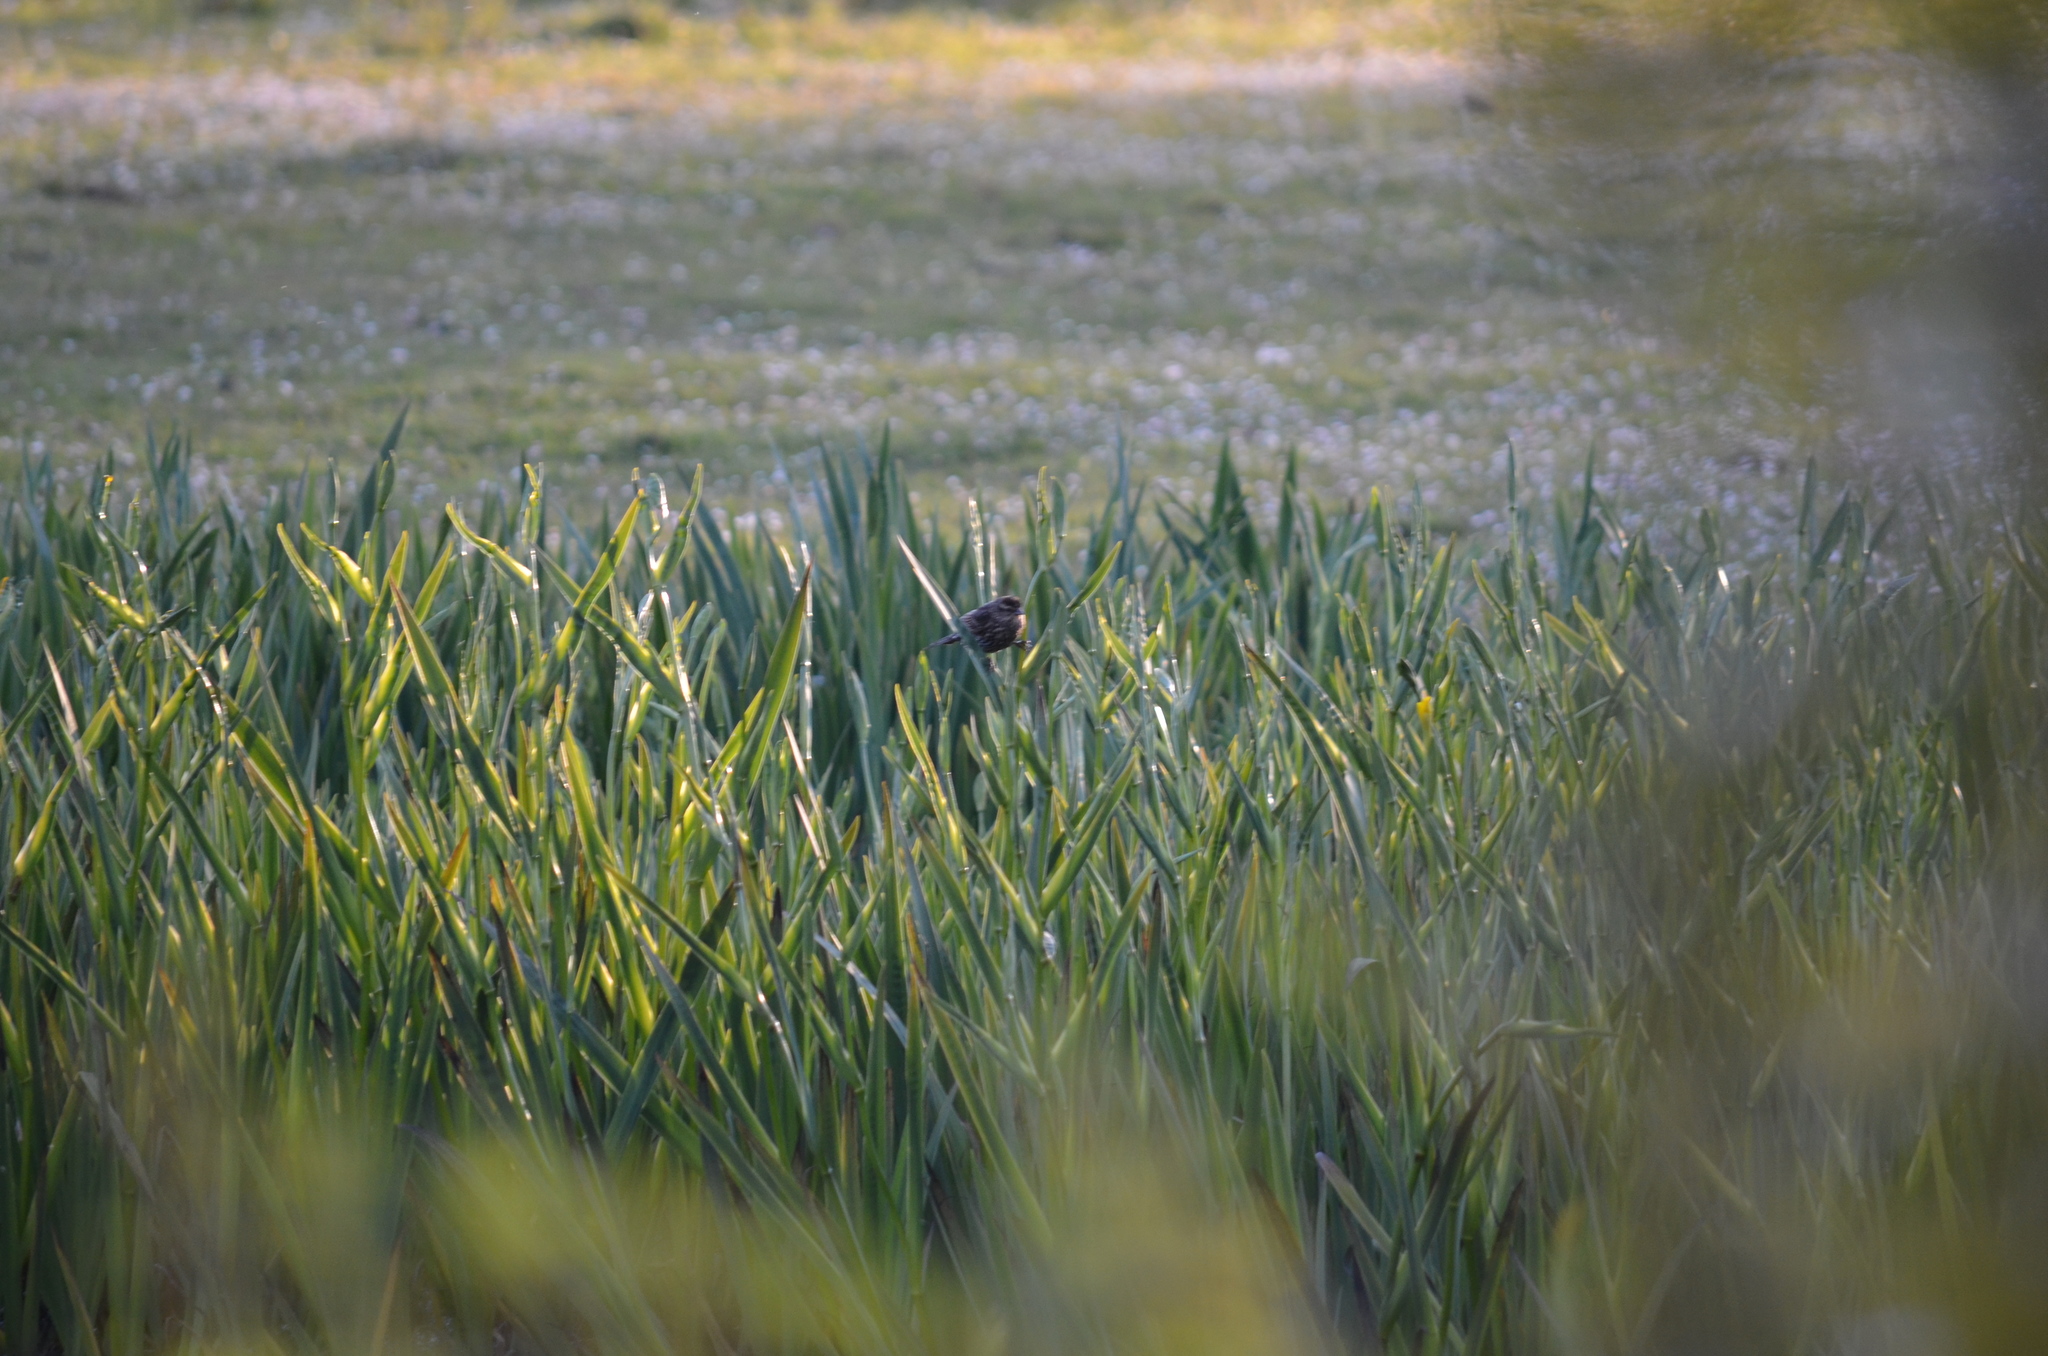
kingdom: Animalia
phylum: Chordata
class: Aves
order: Passeriformes
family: Icteridae
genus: Agelaius
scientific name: Agelaius phoeniceus
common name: Red-winged blackbird
